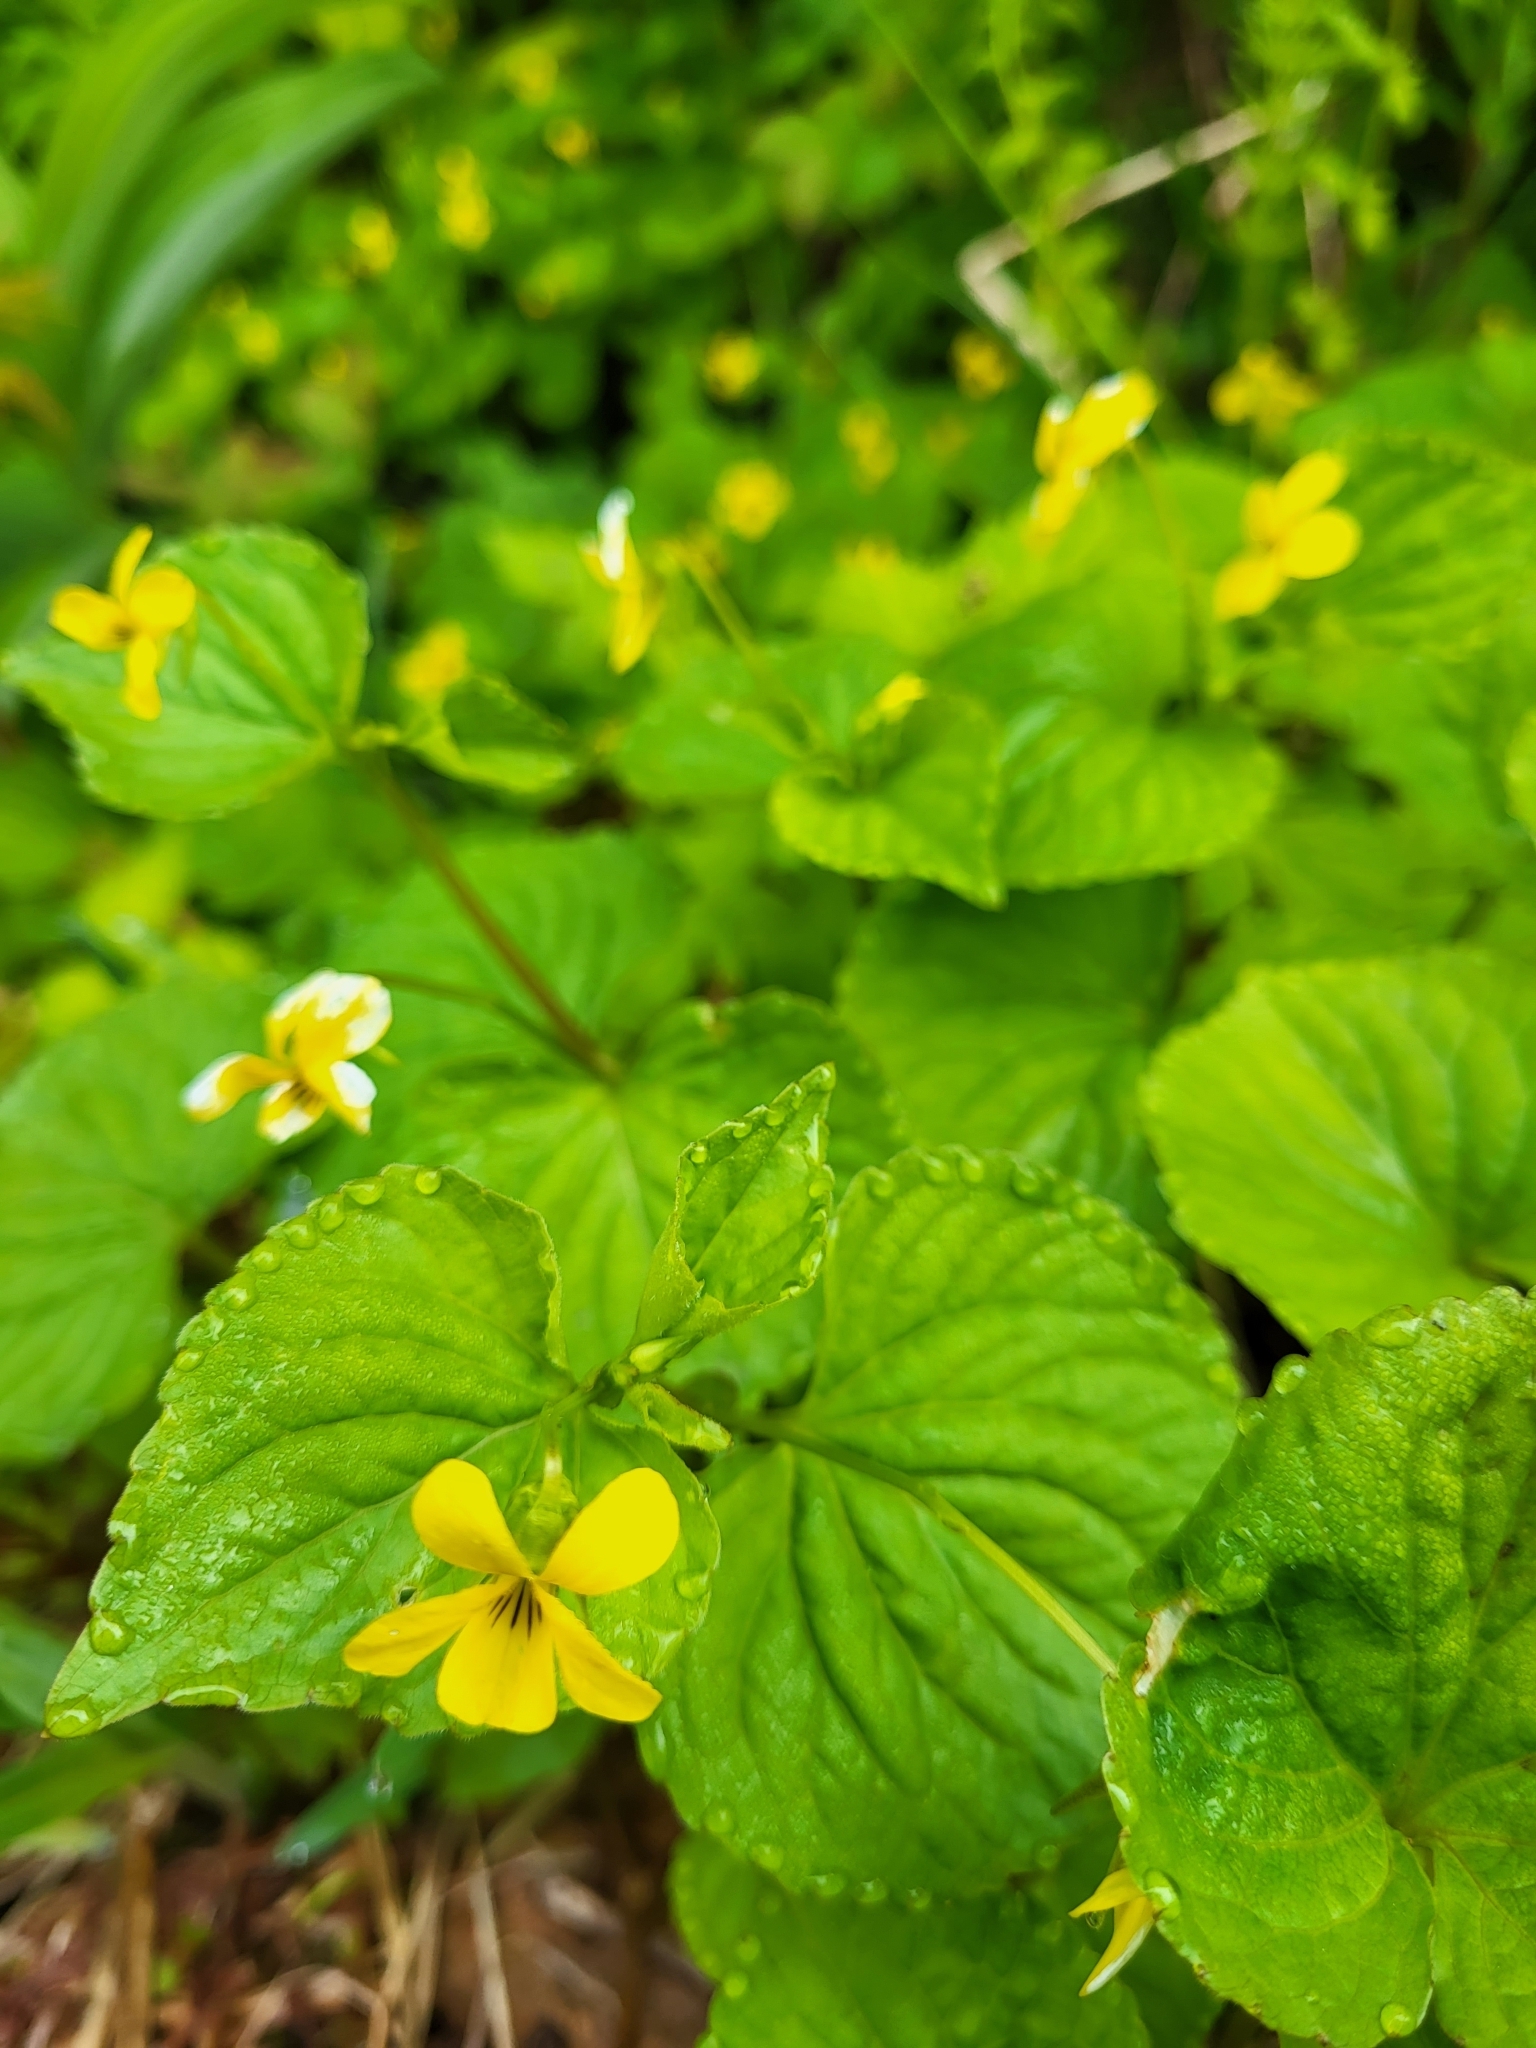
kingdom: Plantae
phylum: Tracheophyta
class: Magnoliopsida
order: Malpighiales
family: Violaceae
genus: Viola
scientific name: Viola glabella
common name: Stream violet
